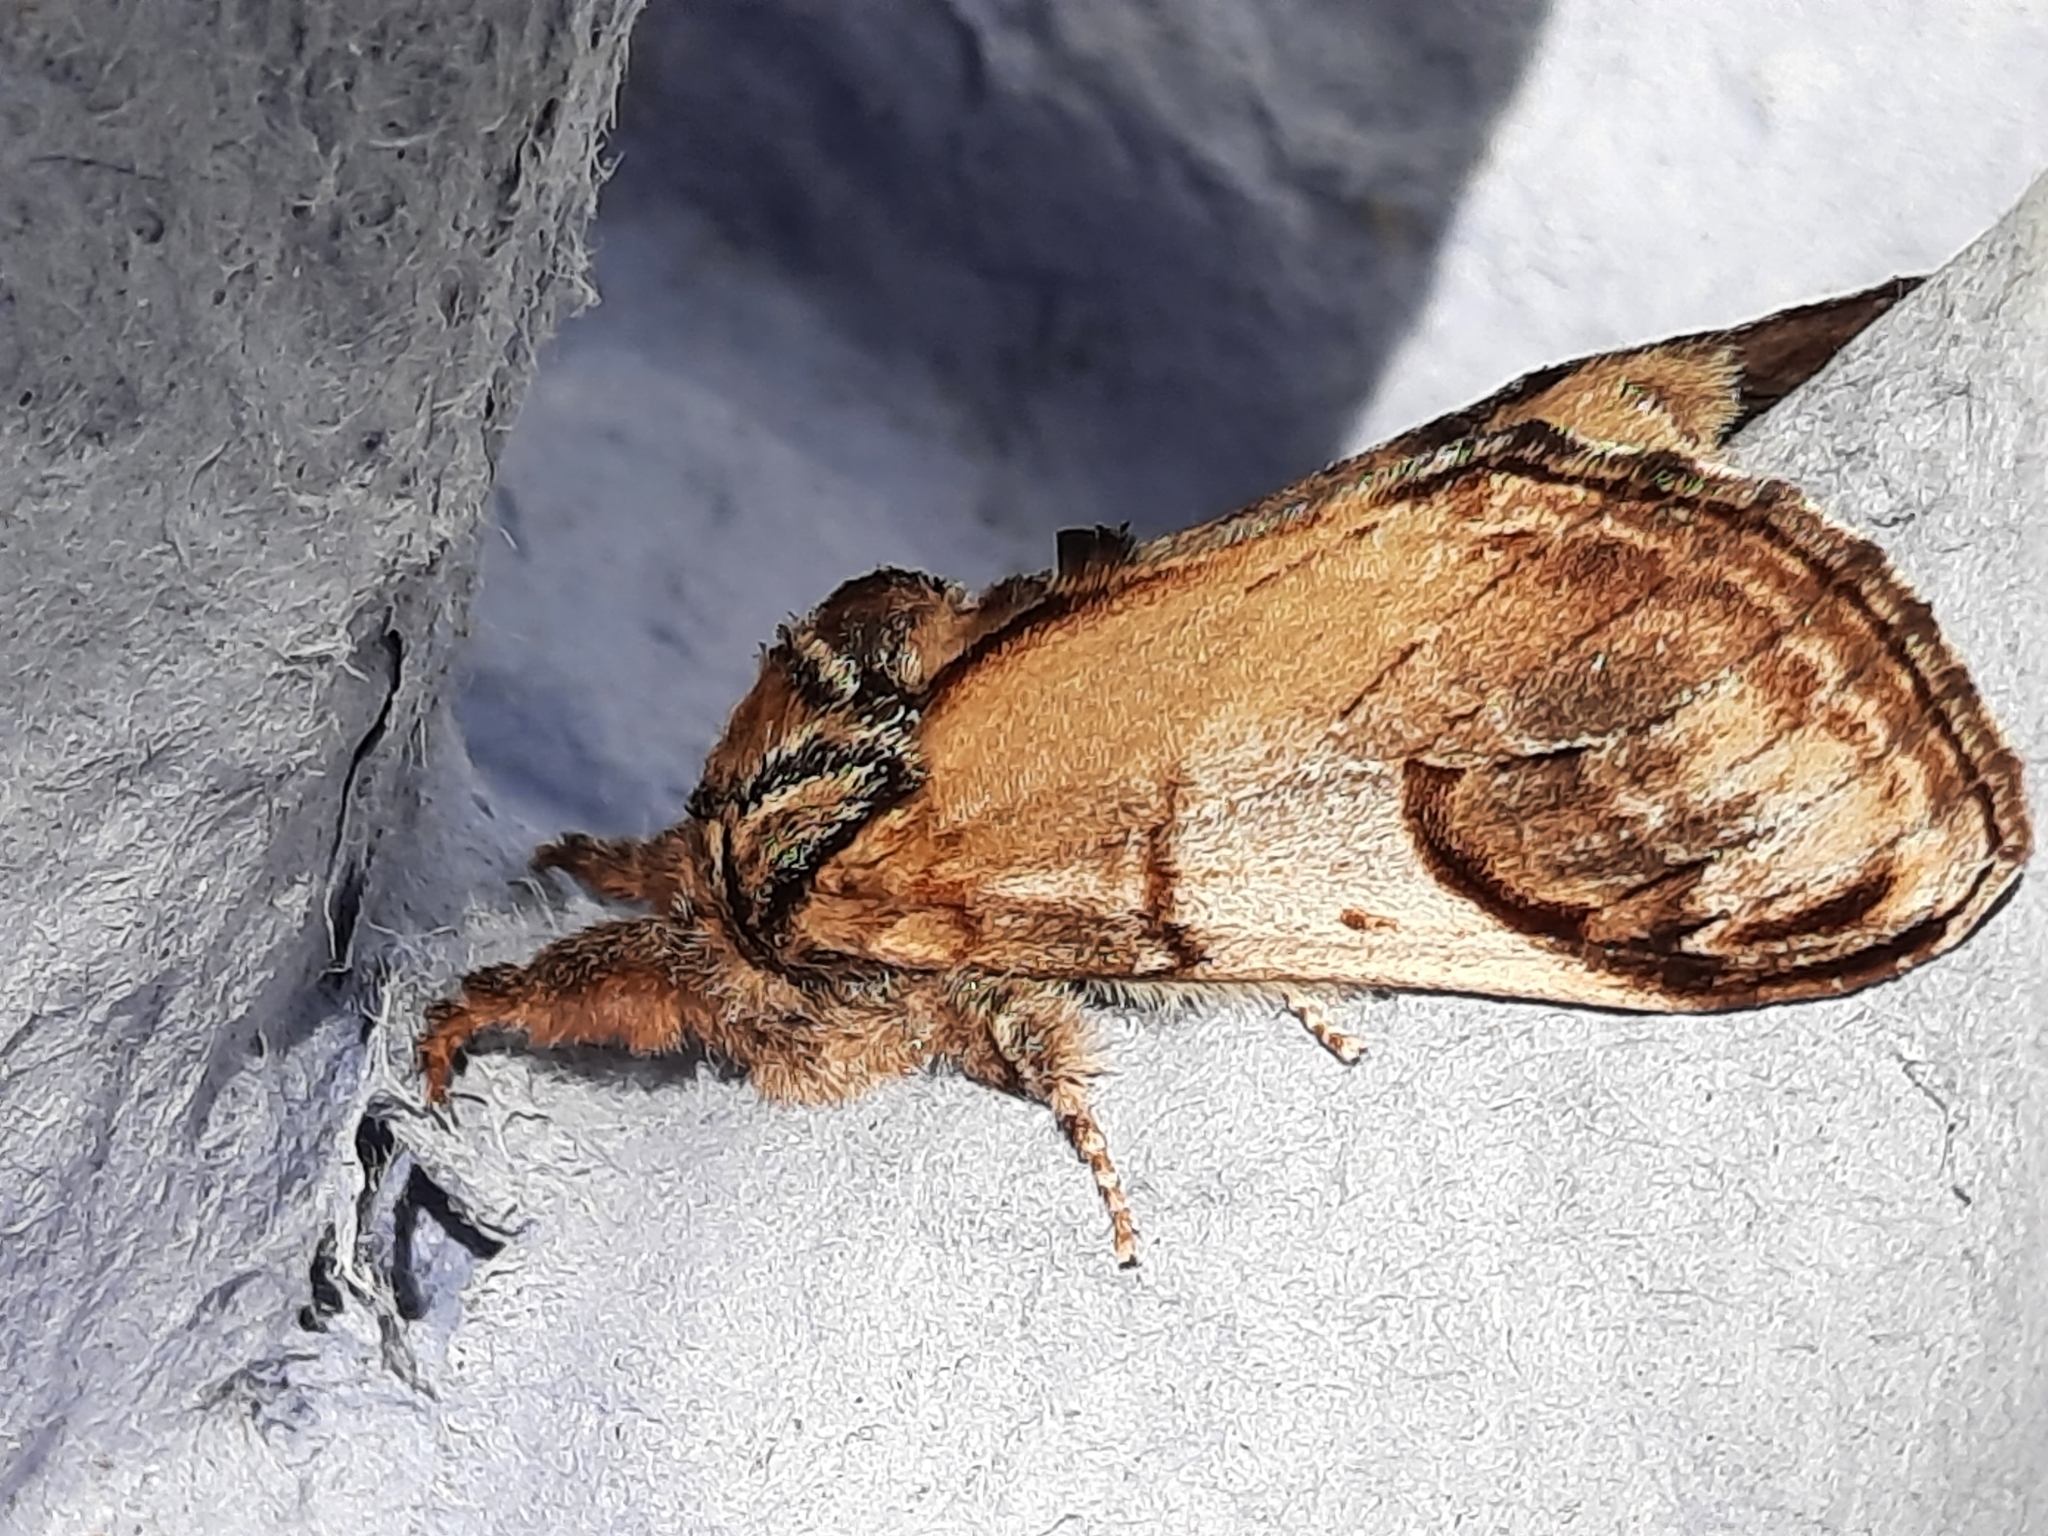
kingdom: Animalia
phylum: Arthropoda
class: Insecta
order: Lepidoptera
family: Notodontidae
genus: Notodonta
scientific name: Notodonta ziczac
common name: Pebble prominent
